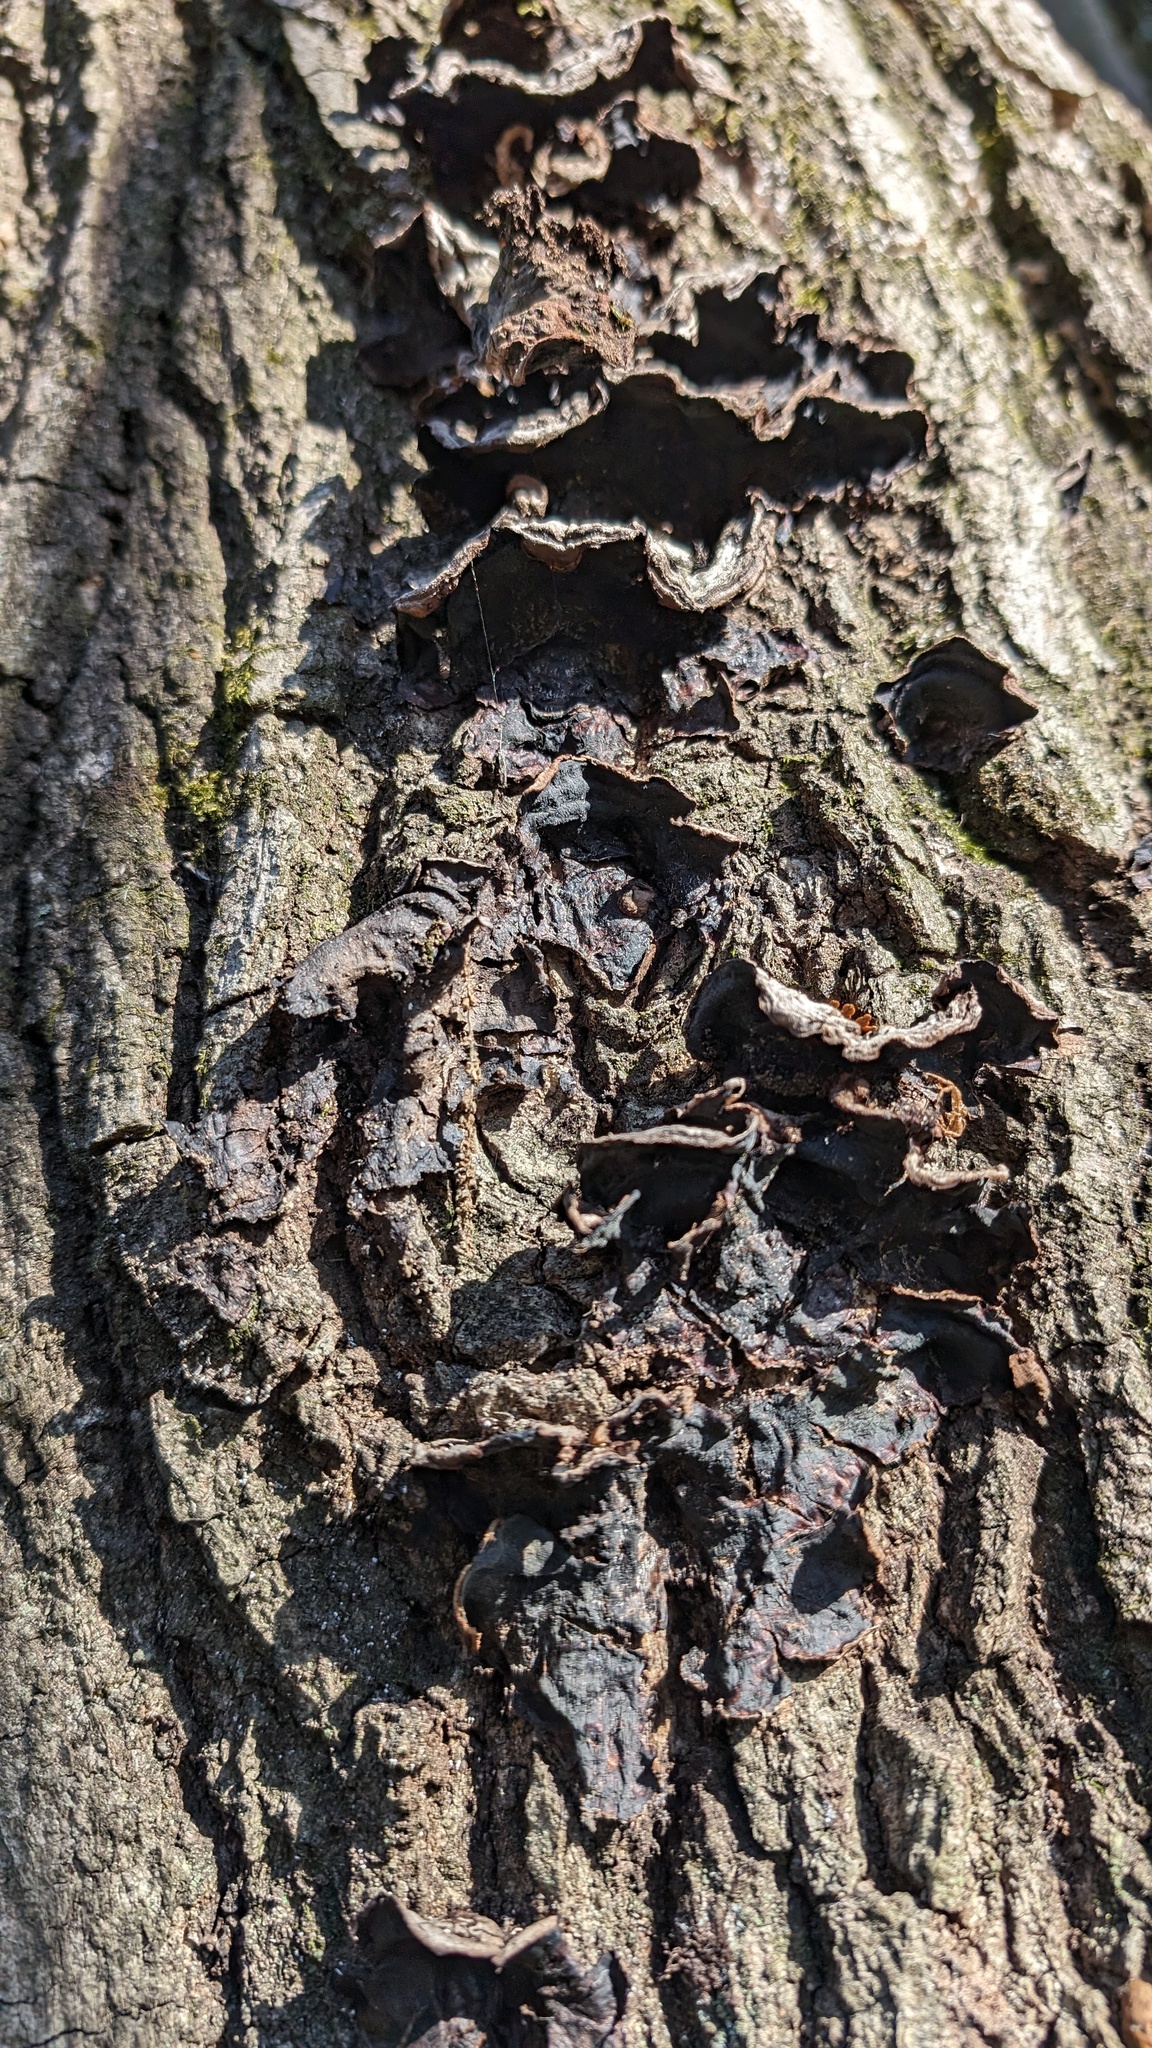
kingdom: Fungi
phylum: Basidiomycota
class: Agaricomycetes
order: Corticiales
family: Punctulariaceae
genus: Punctularia
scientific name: Punctularia strigosozonata
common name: White-rot fungus
